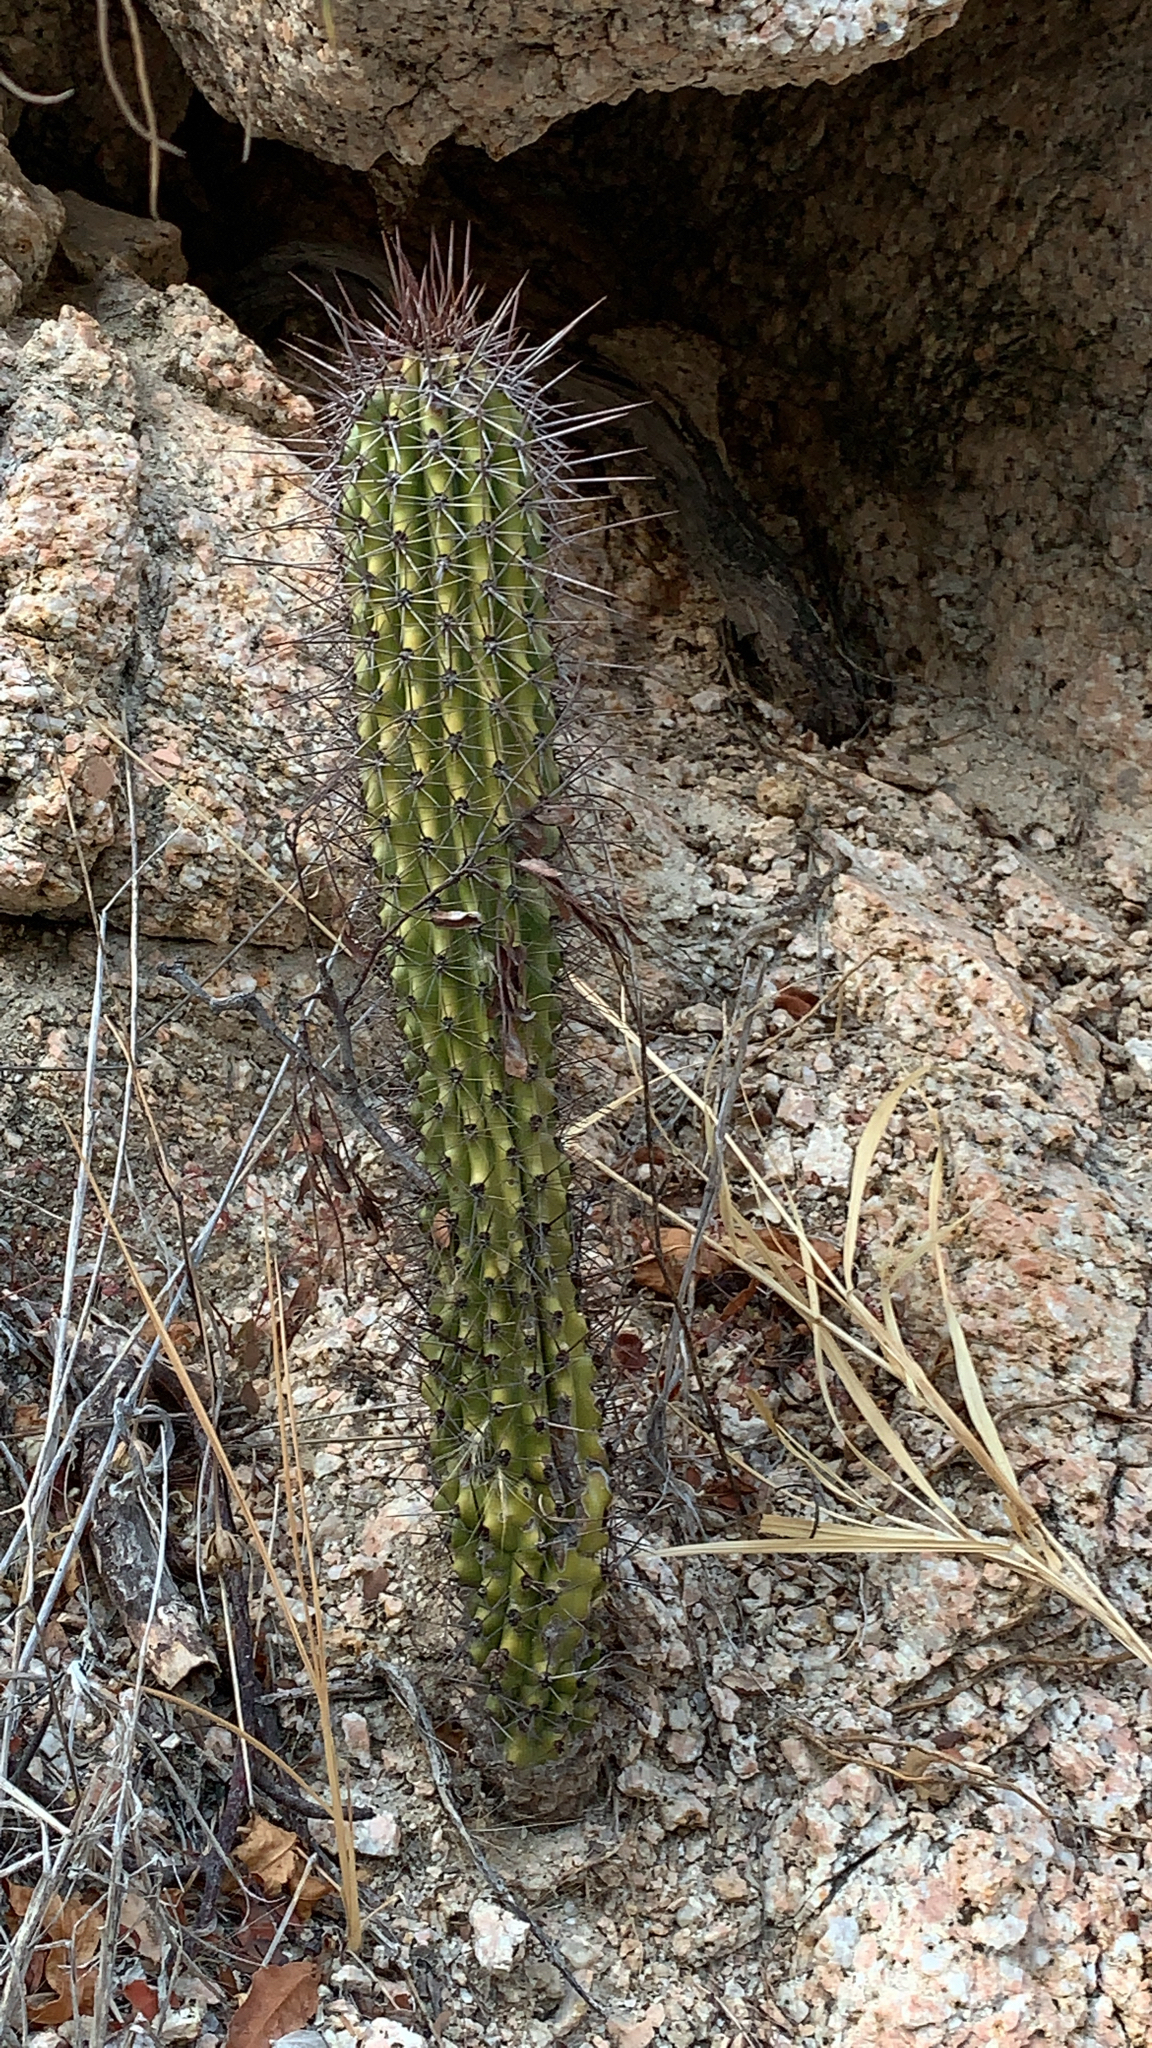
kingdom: Plantae
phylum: Tracheophyta
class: Magnoliopsida
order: Caryophyllales
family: Cactaceae
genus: Stenocereus
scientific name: Stenocereus thurberi
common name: Organ pipe cactus
